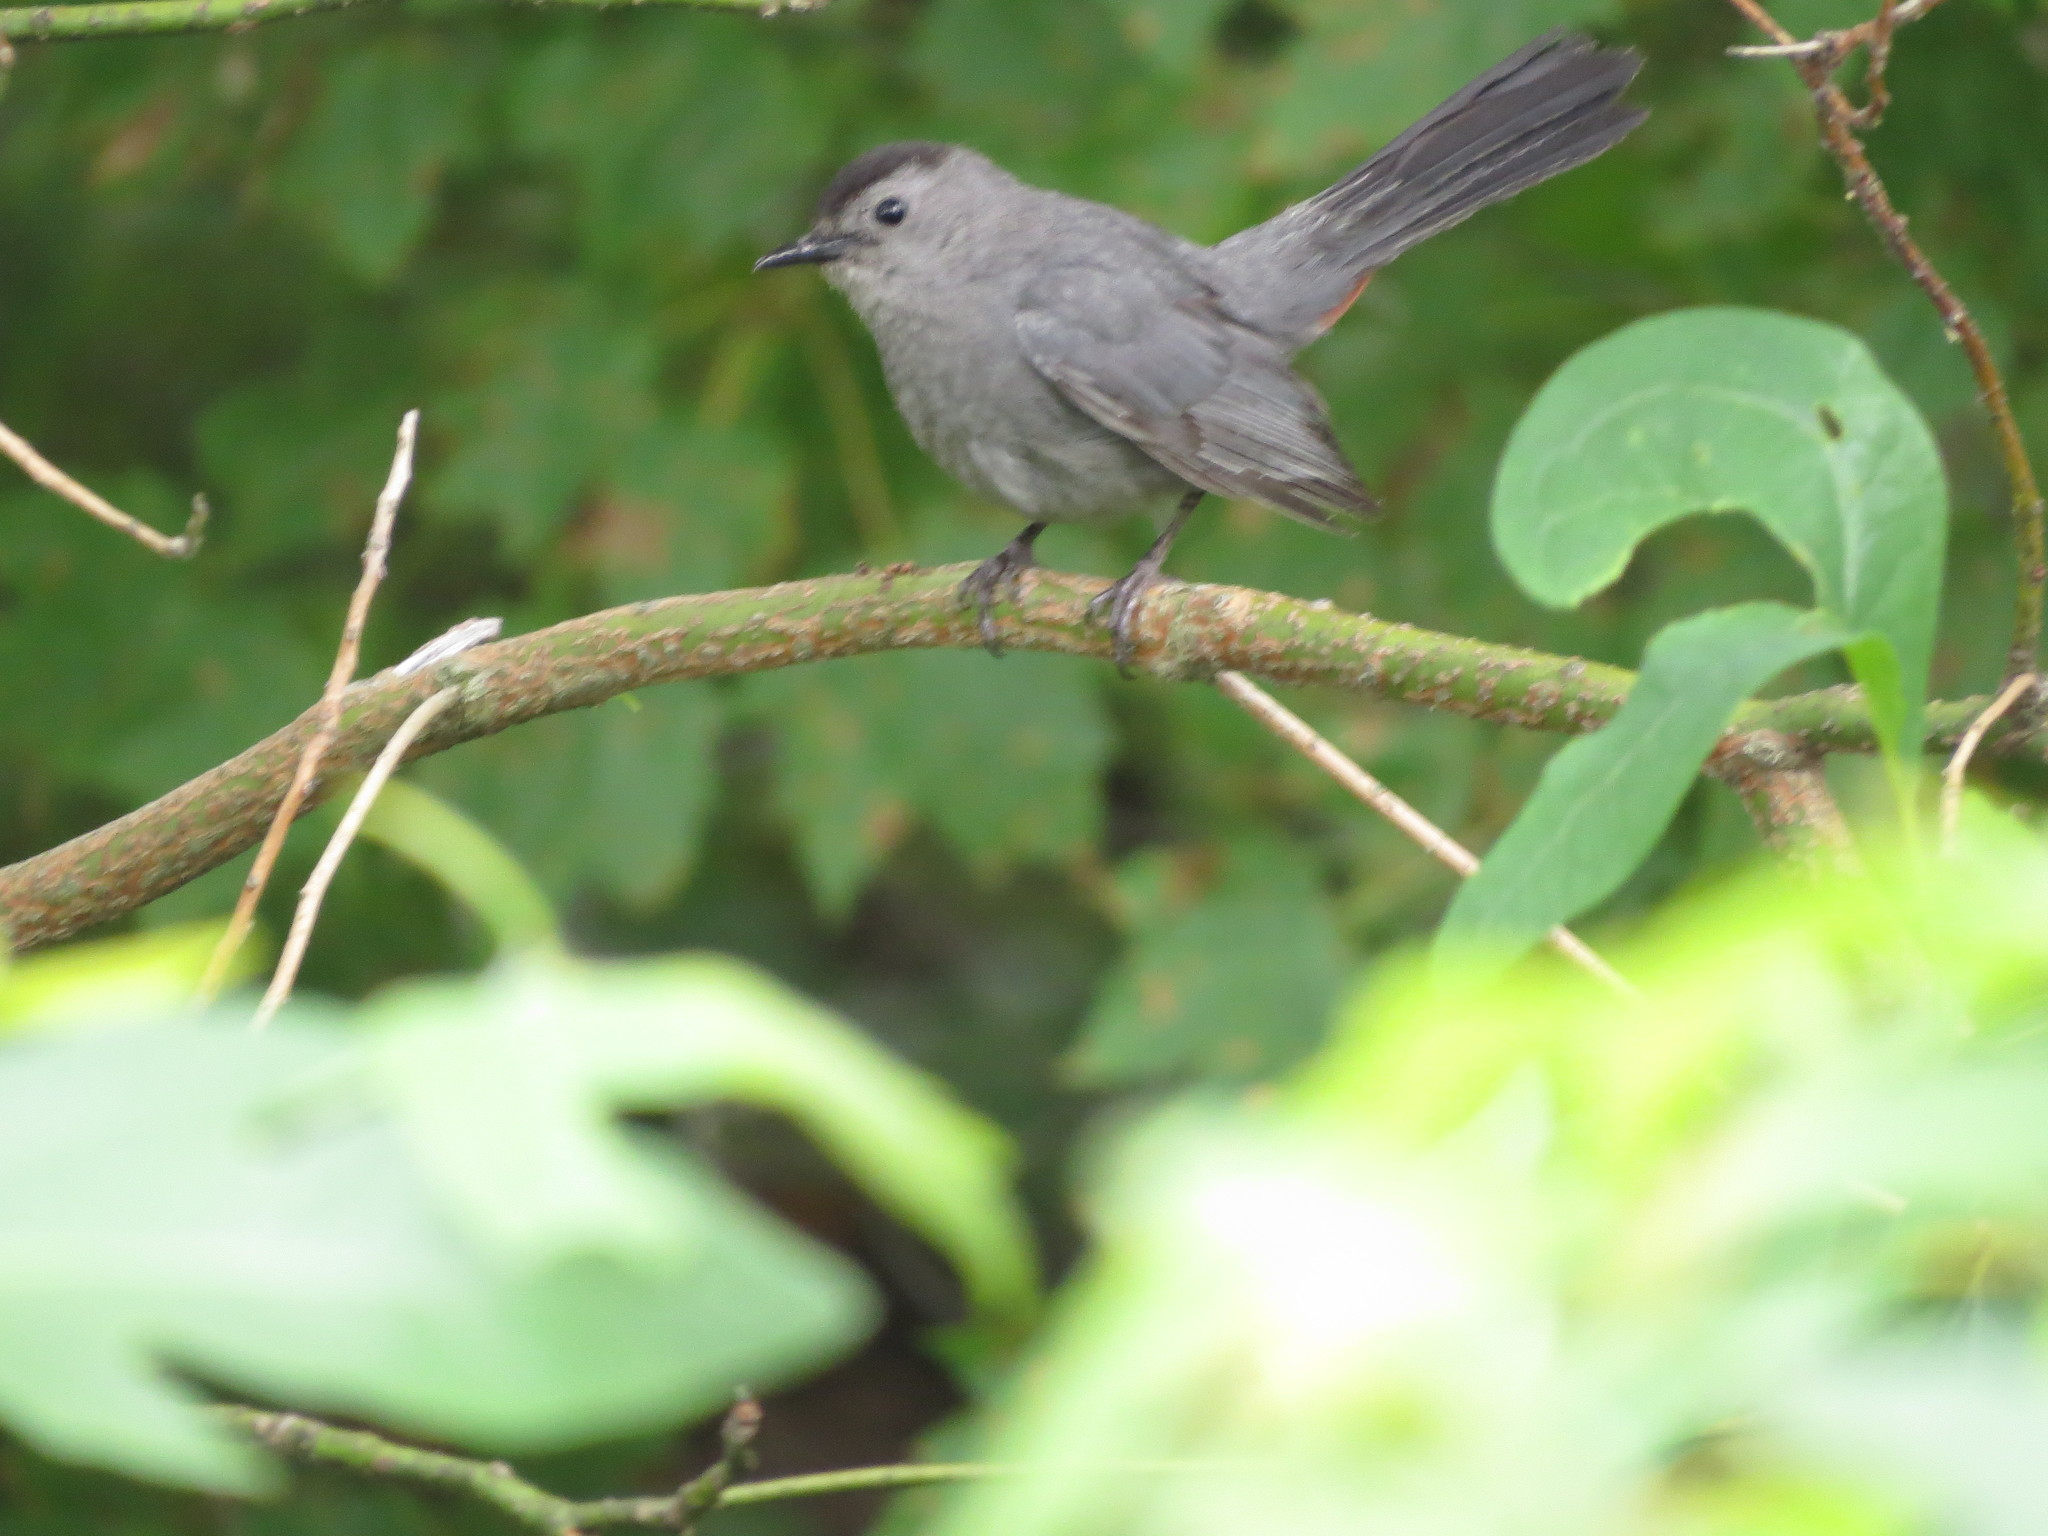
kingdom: Animalia
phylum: Chordata
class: Aves
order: Passeriformes
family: Mimidae
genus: Dumetella
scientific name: Dumetella carolinensis
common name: Gray catbird
